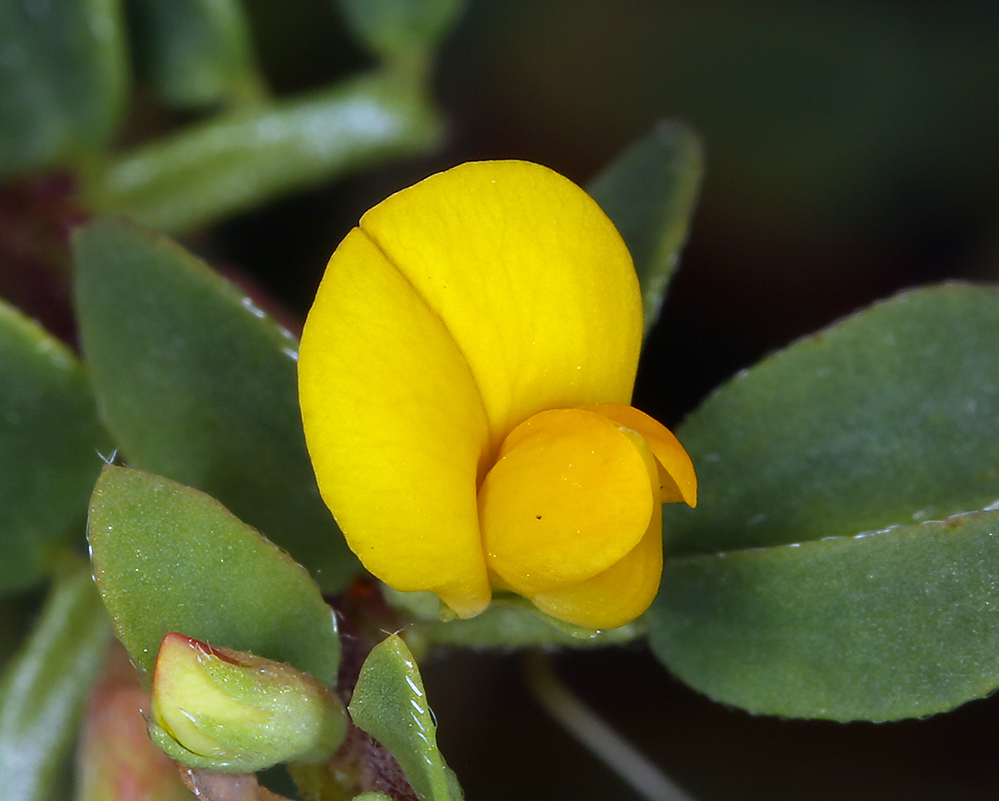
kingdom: Plantae
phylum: Tracheophyta
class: Magnoliopsida
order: Fabales
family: Fabaceae
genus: Acmispon
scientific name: Acmispon wrangelianus
